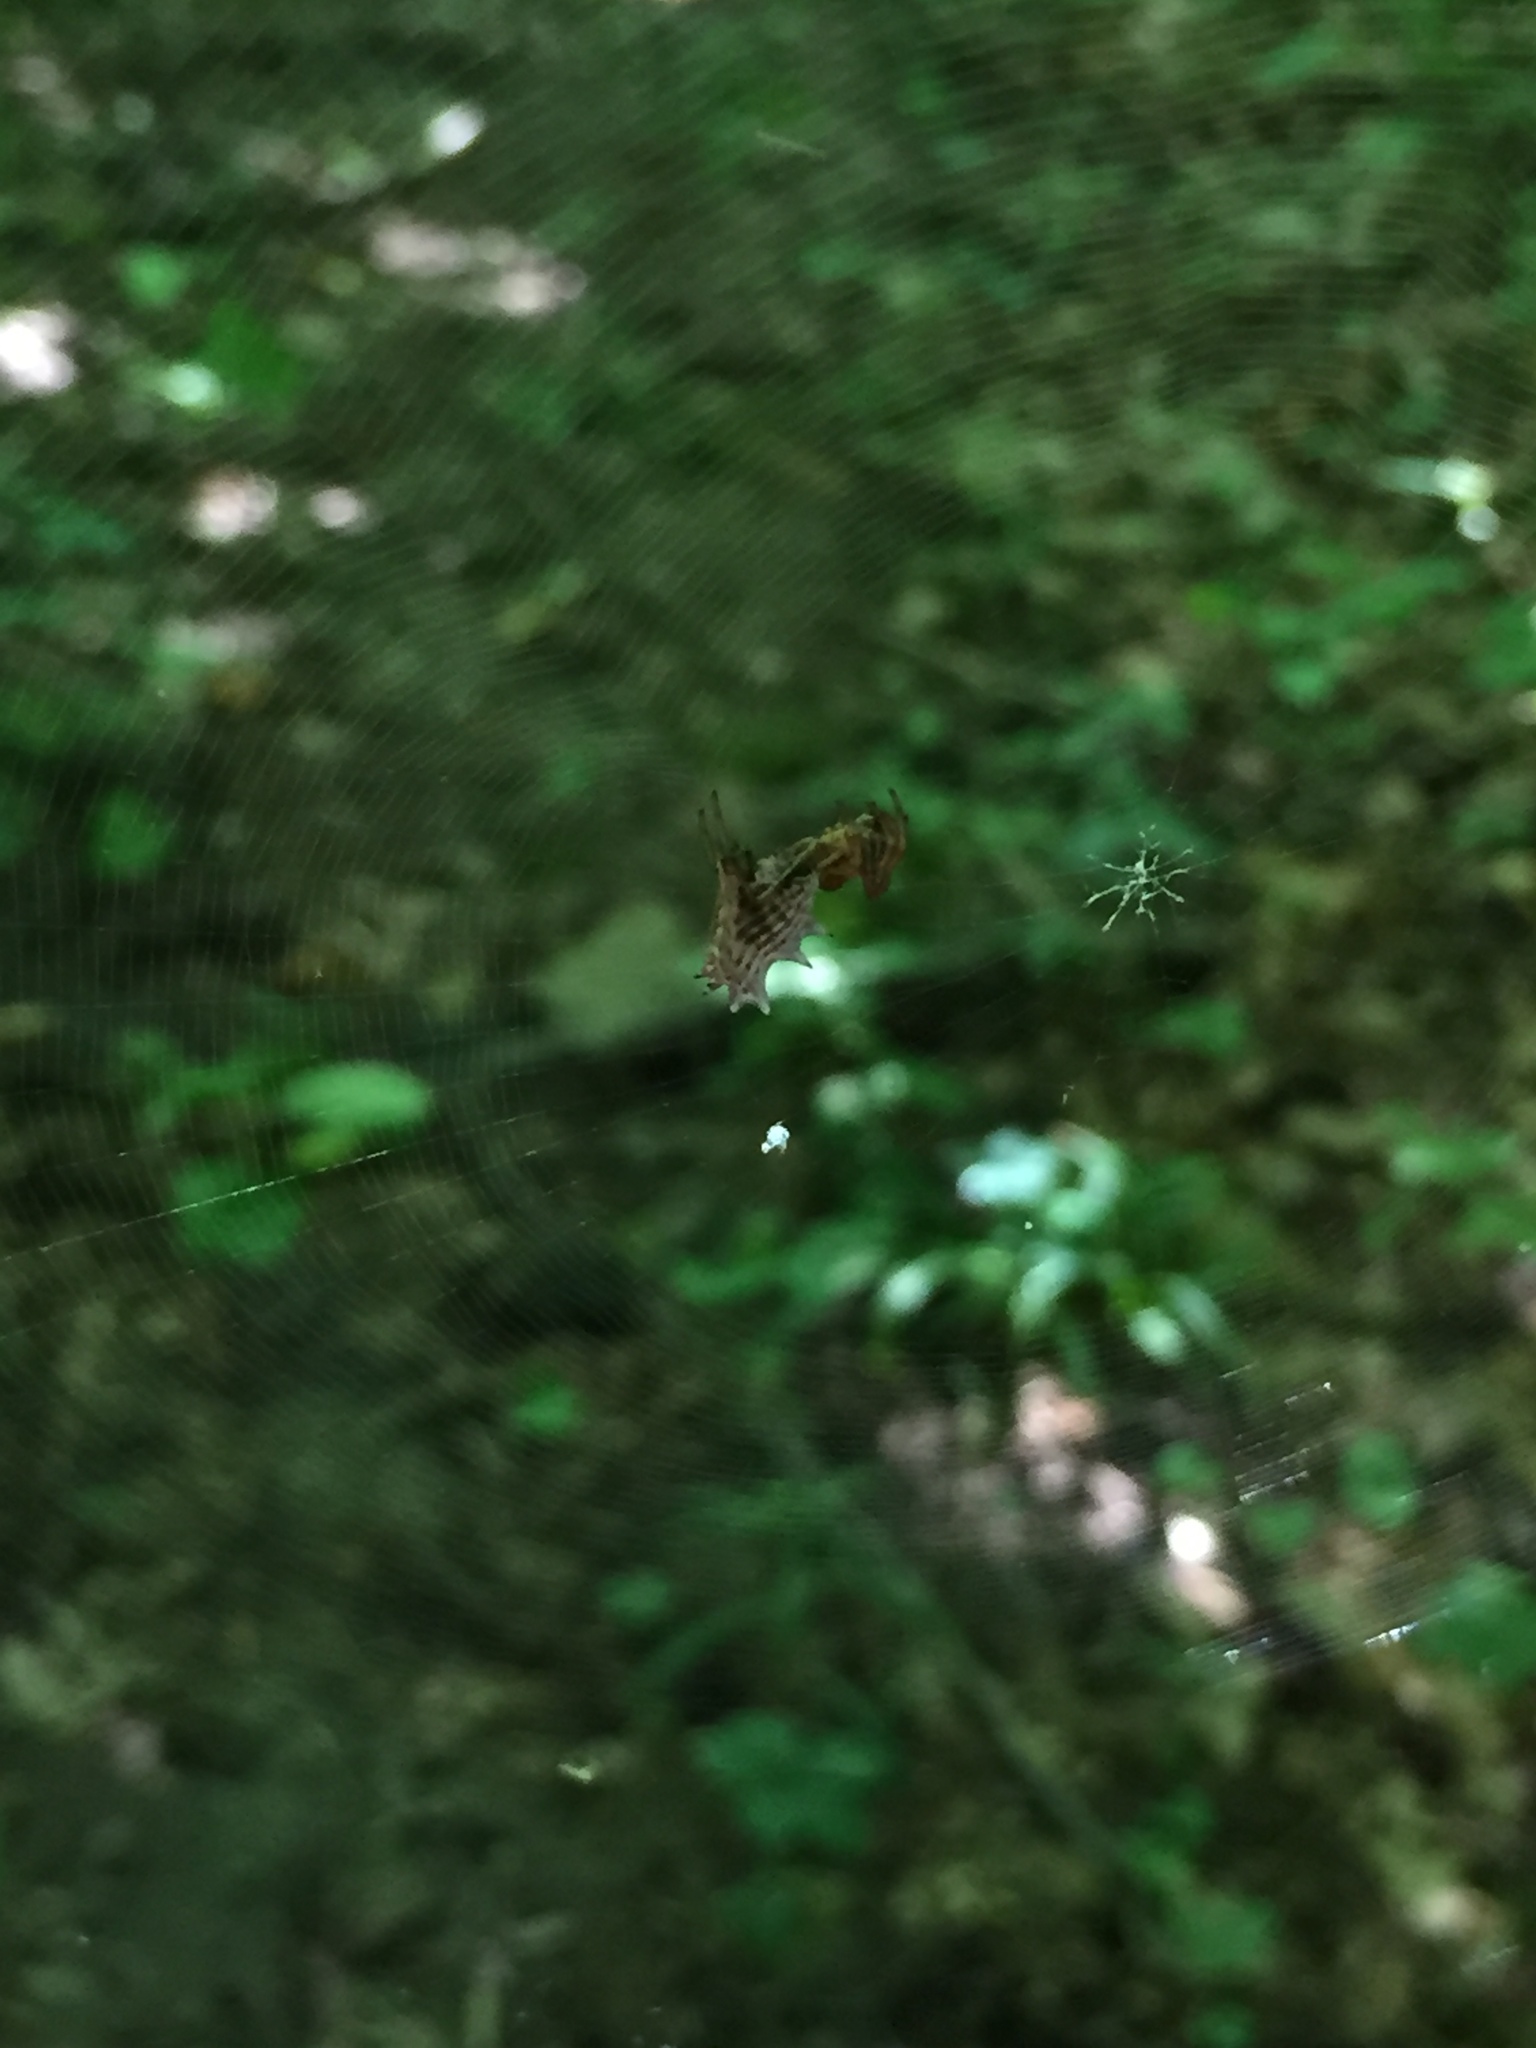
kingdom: Animalia
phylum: Arthropoda
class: Arachnida
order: Araneae
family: Araneidae
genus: Micrathena
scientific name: Micrathena gracilis
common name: Orb weavers
